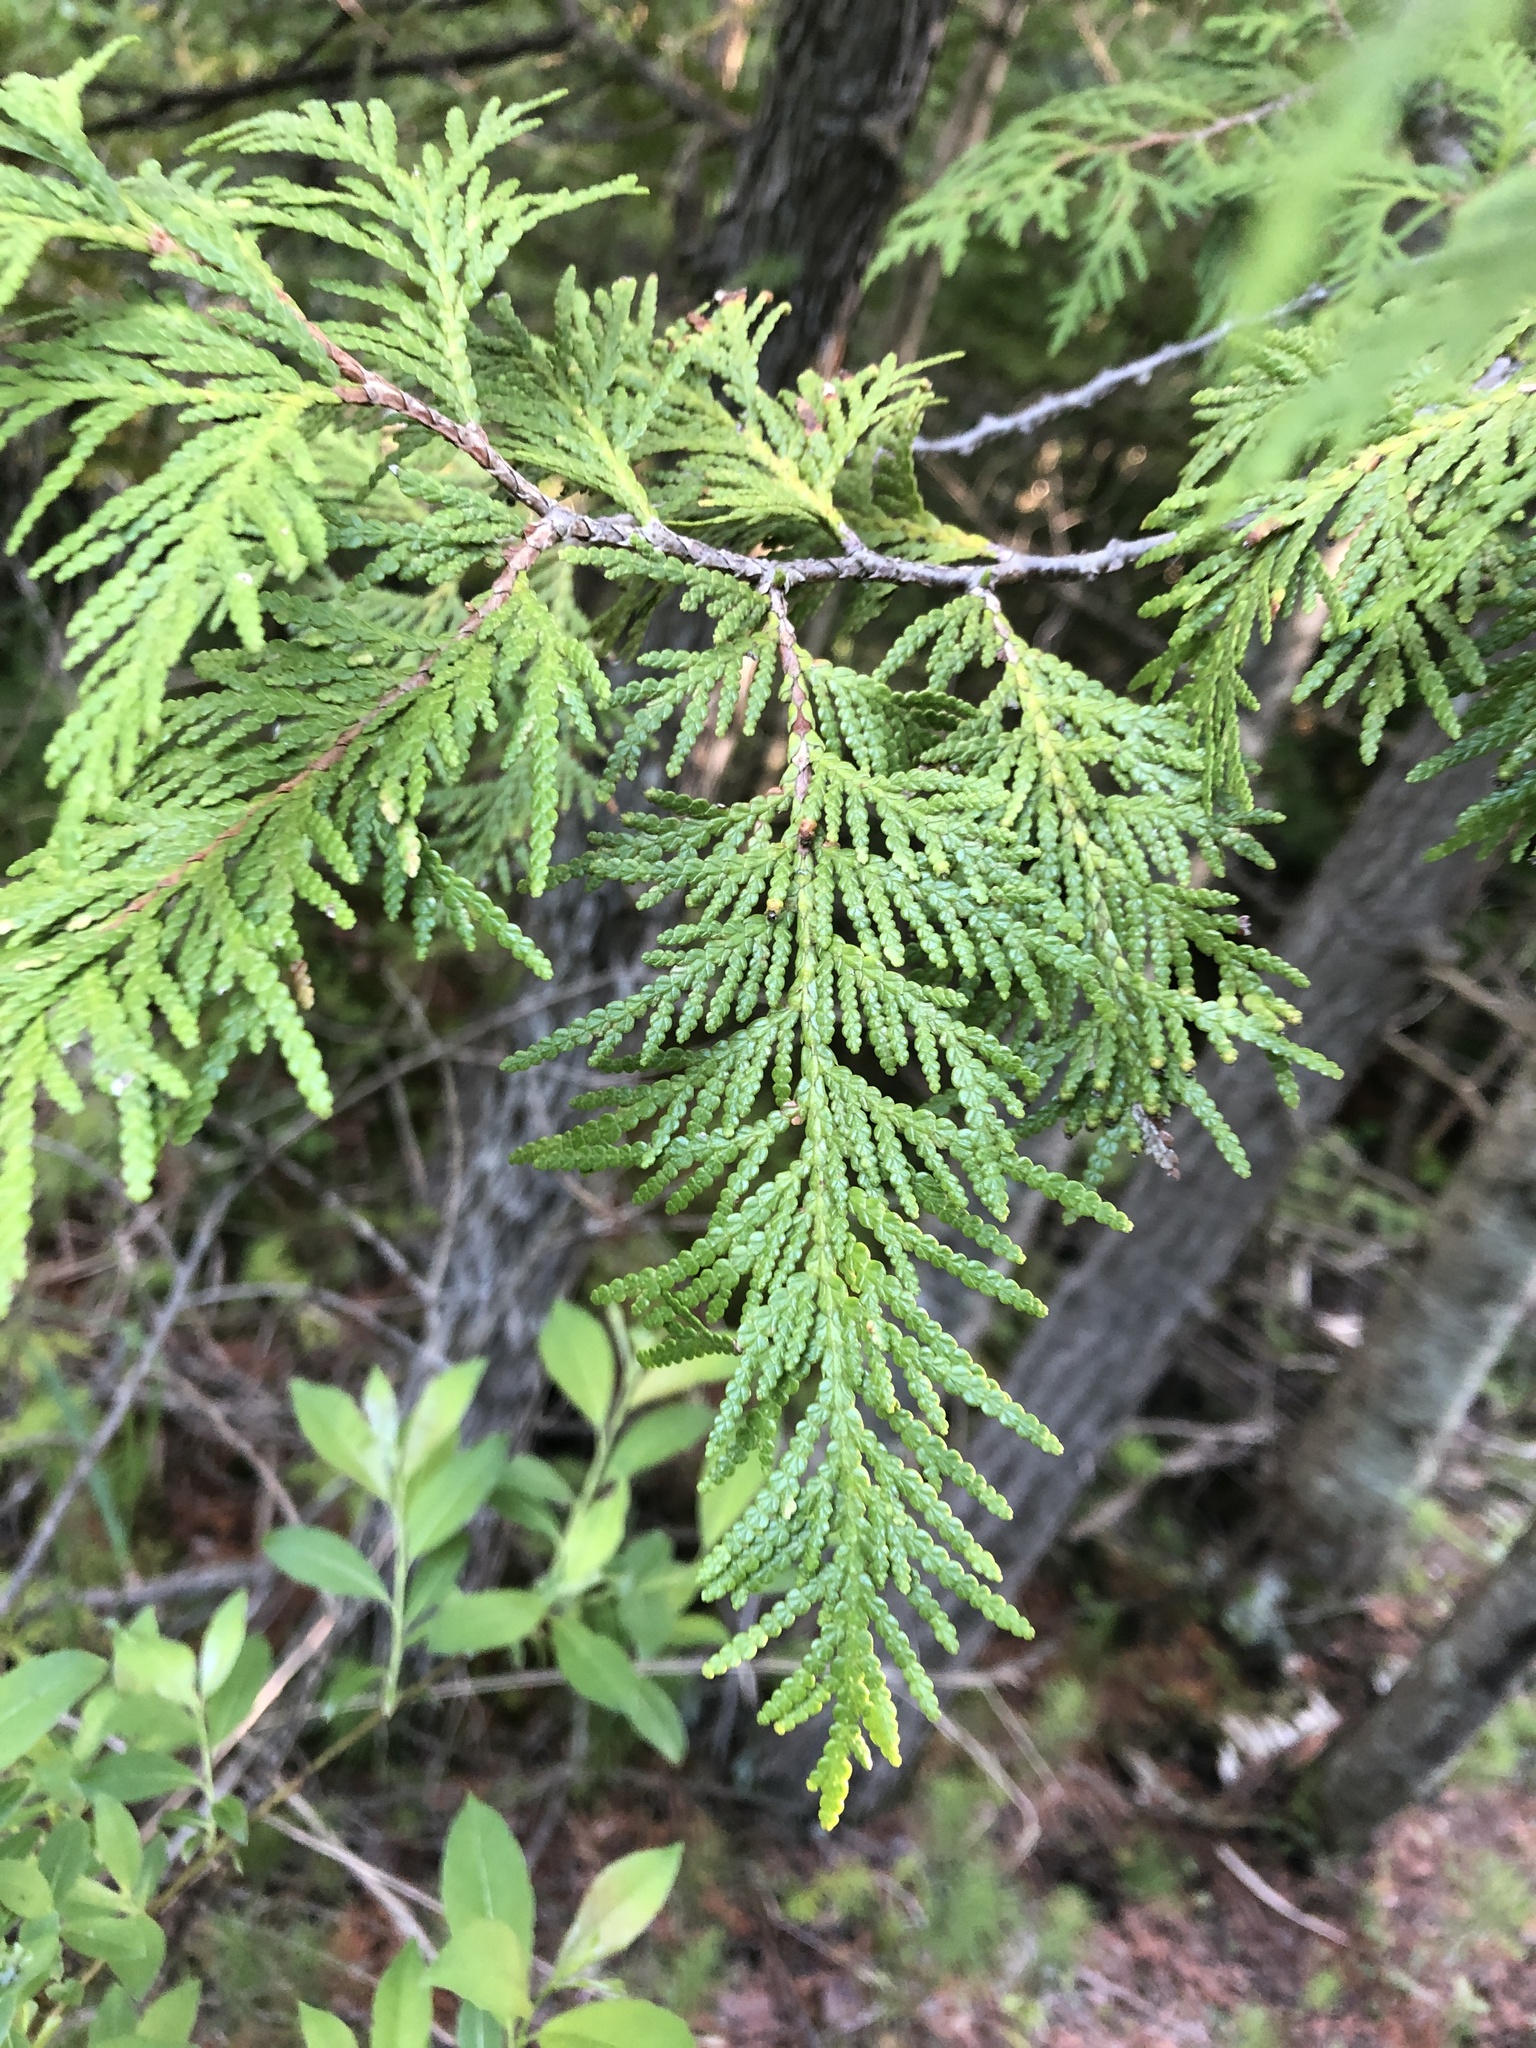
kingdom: Plantae
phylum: Tracheophyta
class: Pinopsida
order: Pinales
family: Cupressaceae
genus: Thuja
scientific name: Thuja occidentalis
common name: Northern white-cedar
